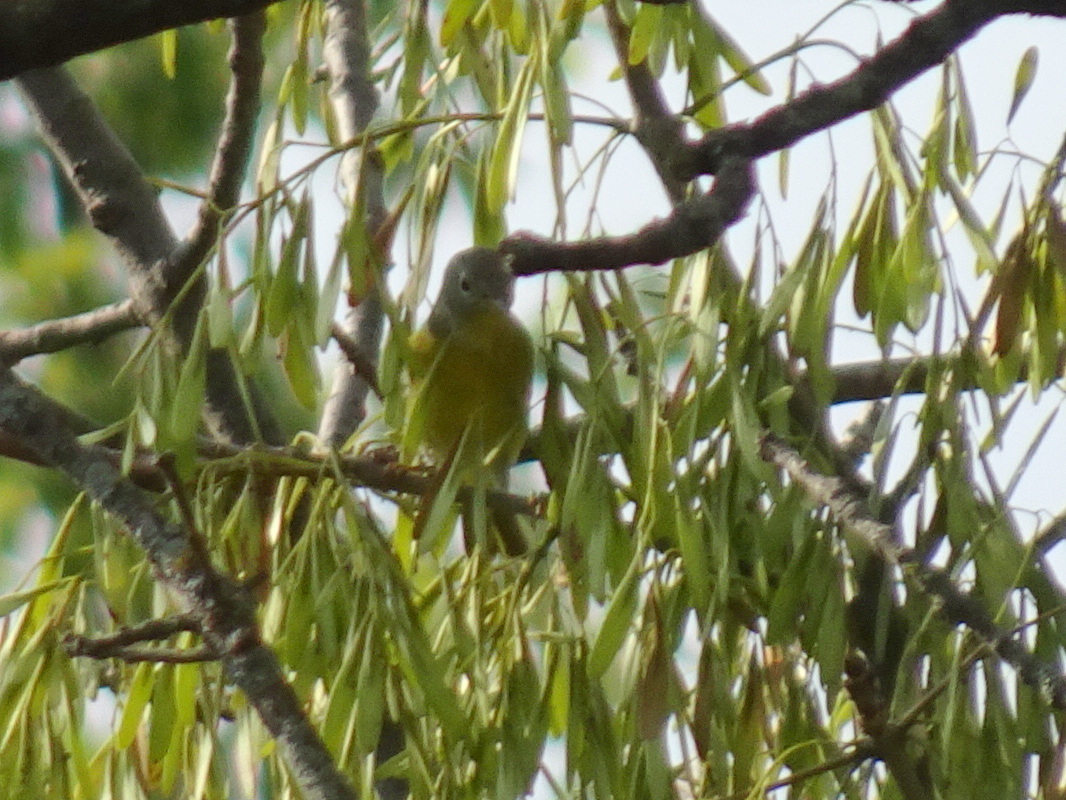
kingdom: Animalia
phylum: Chordata
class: Aves
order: Passeriformes
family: Parulidae
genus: Leiothlypis
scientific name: Leiothlypis ruficapilla
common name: Nashville warbler
